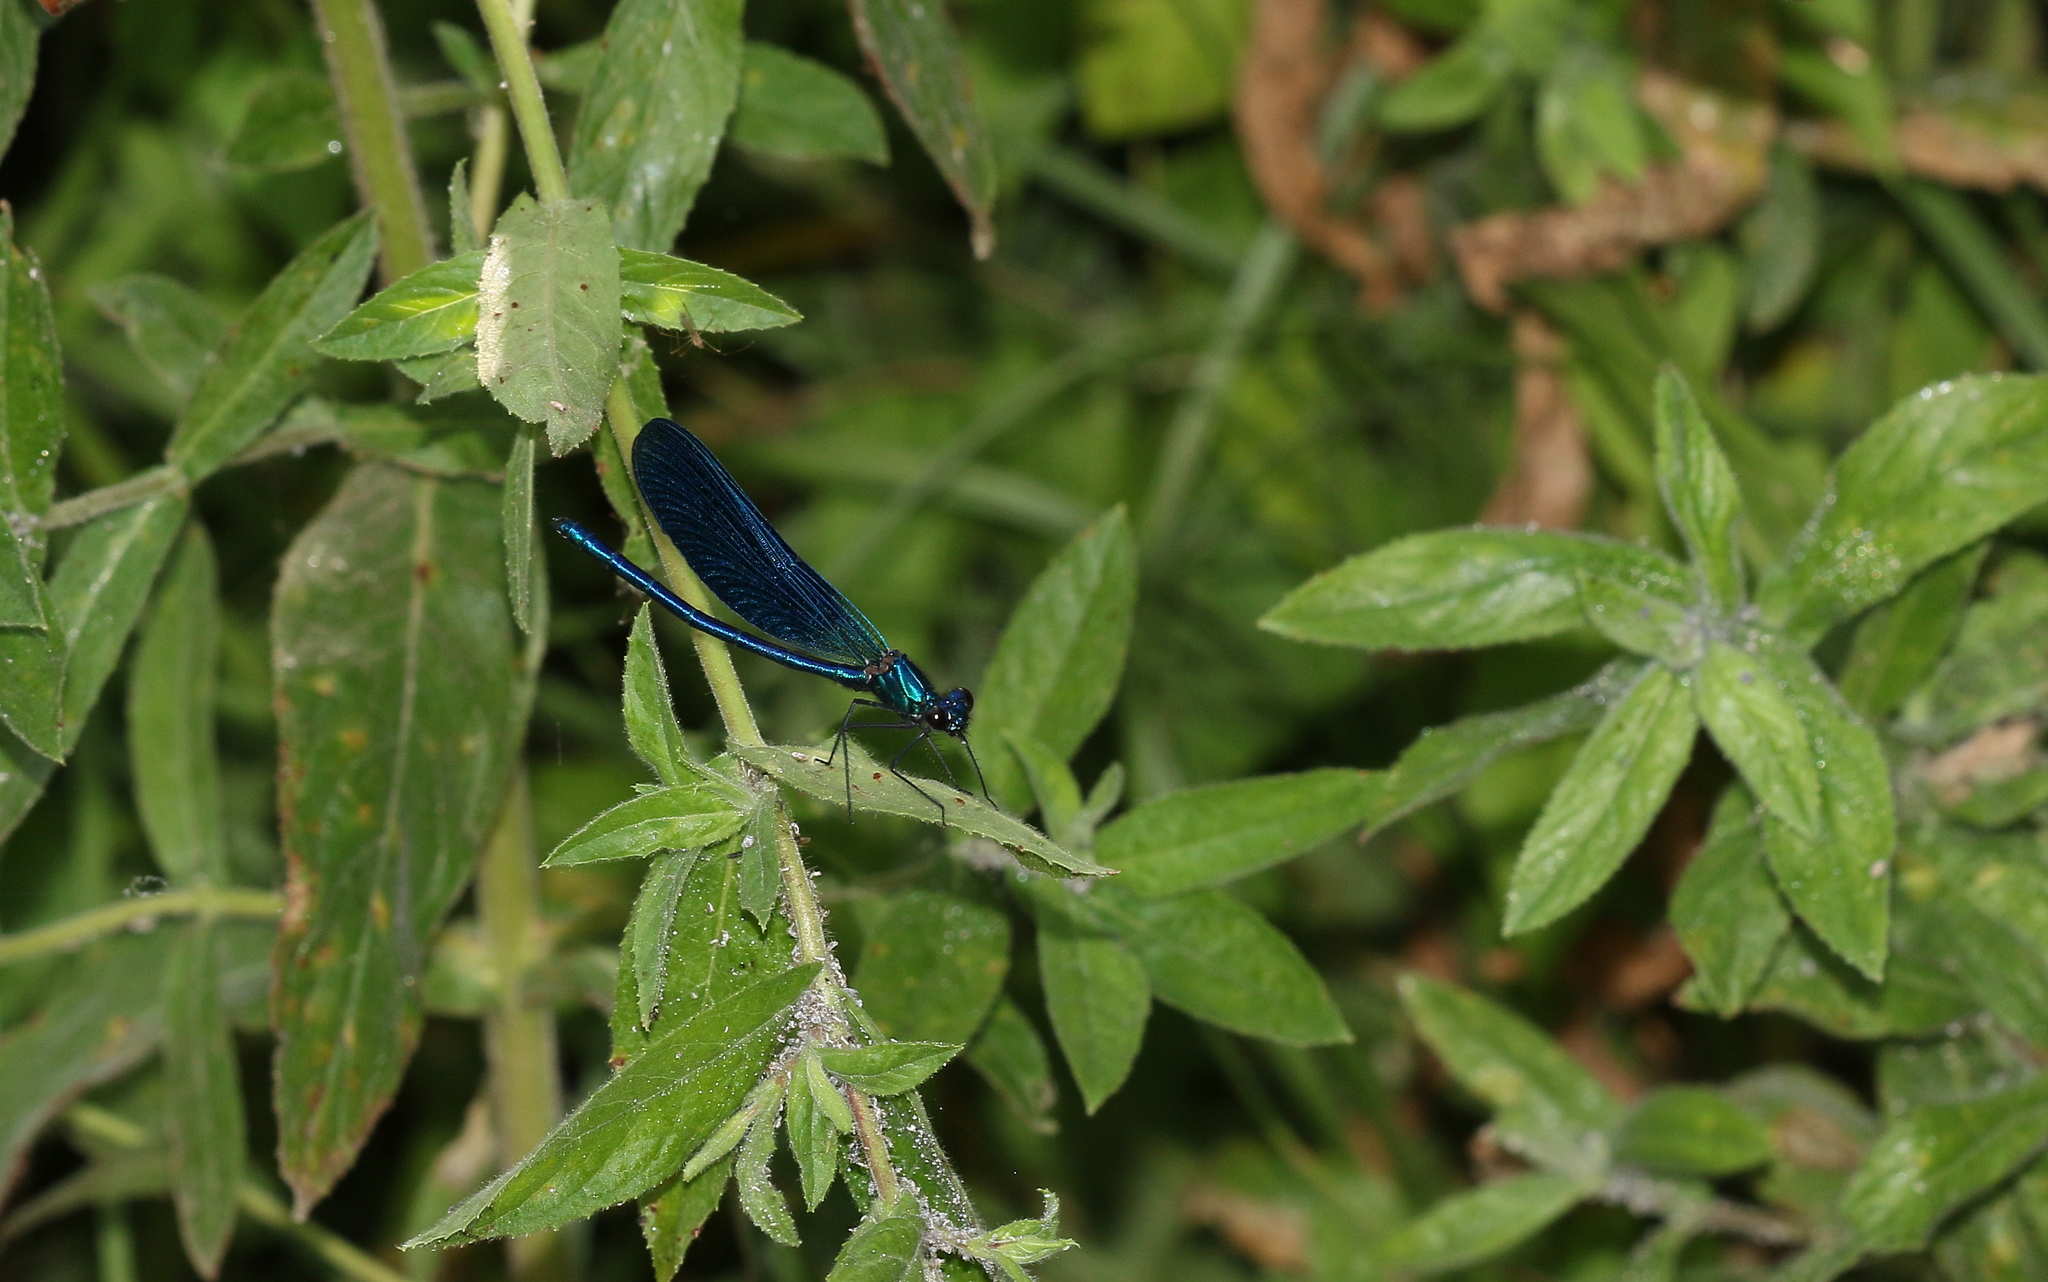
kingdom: Animalia
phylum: Arthropoda
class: Insecta
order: Odonata
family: Calopterygidae
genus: Calopteryx
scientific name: Calopteryx virgo
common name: Beautiful demoiselle
